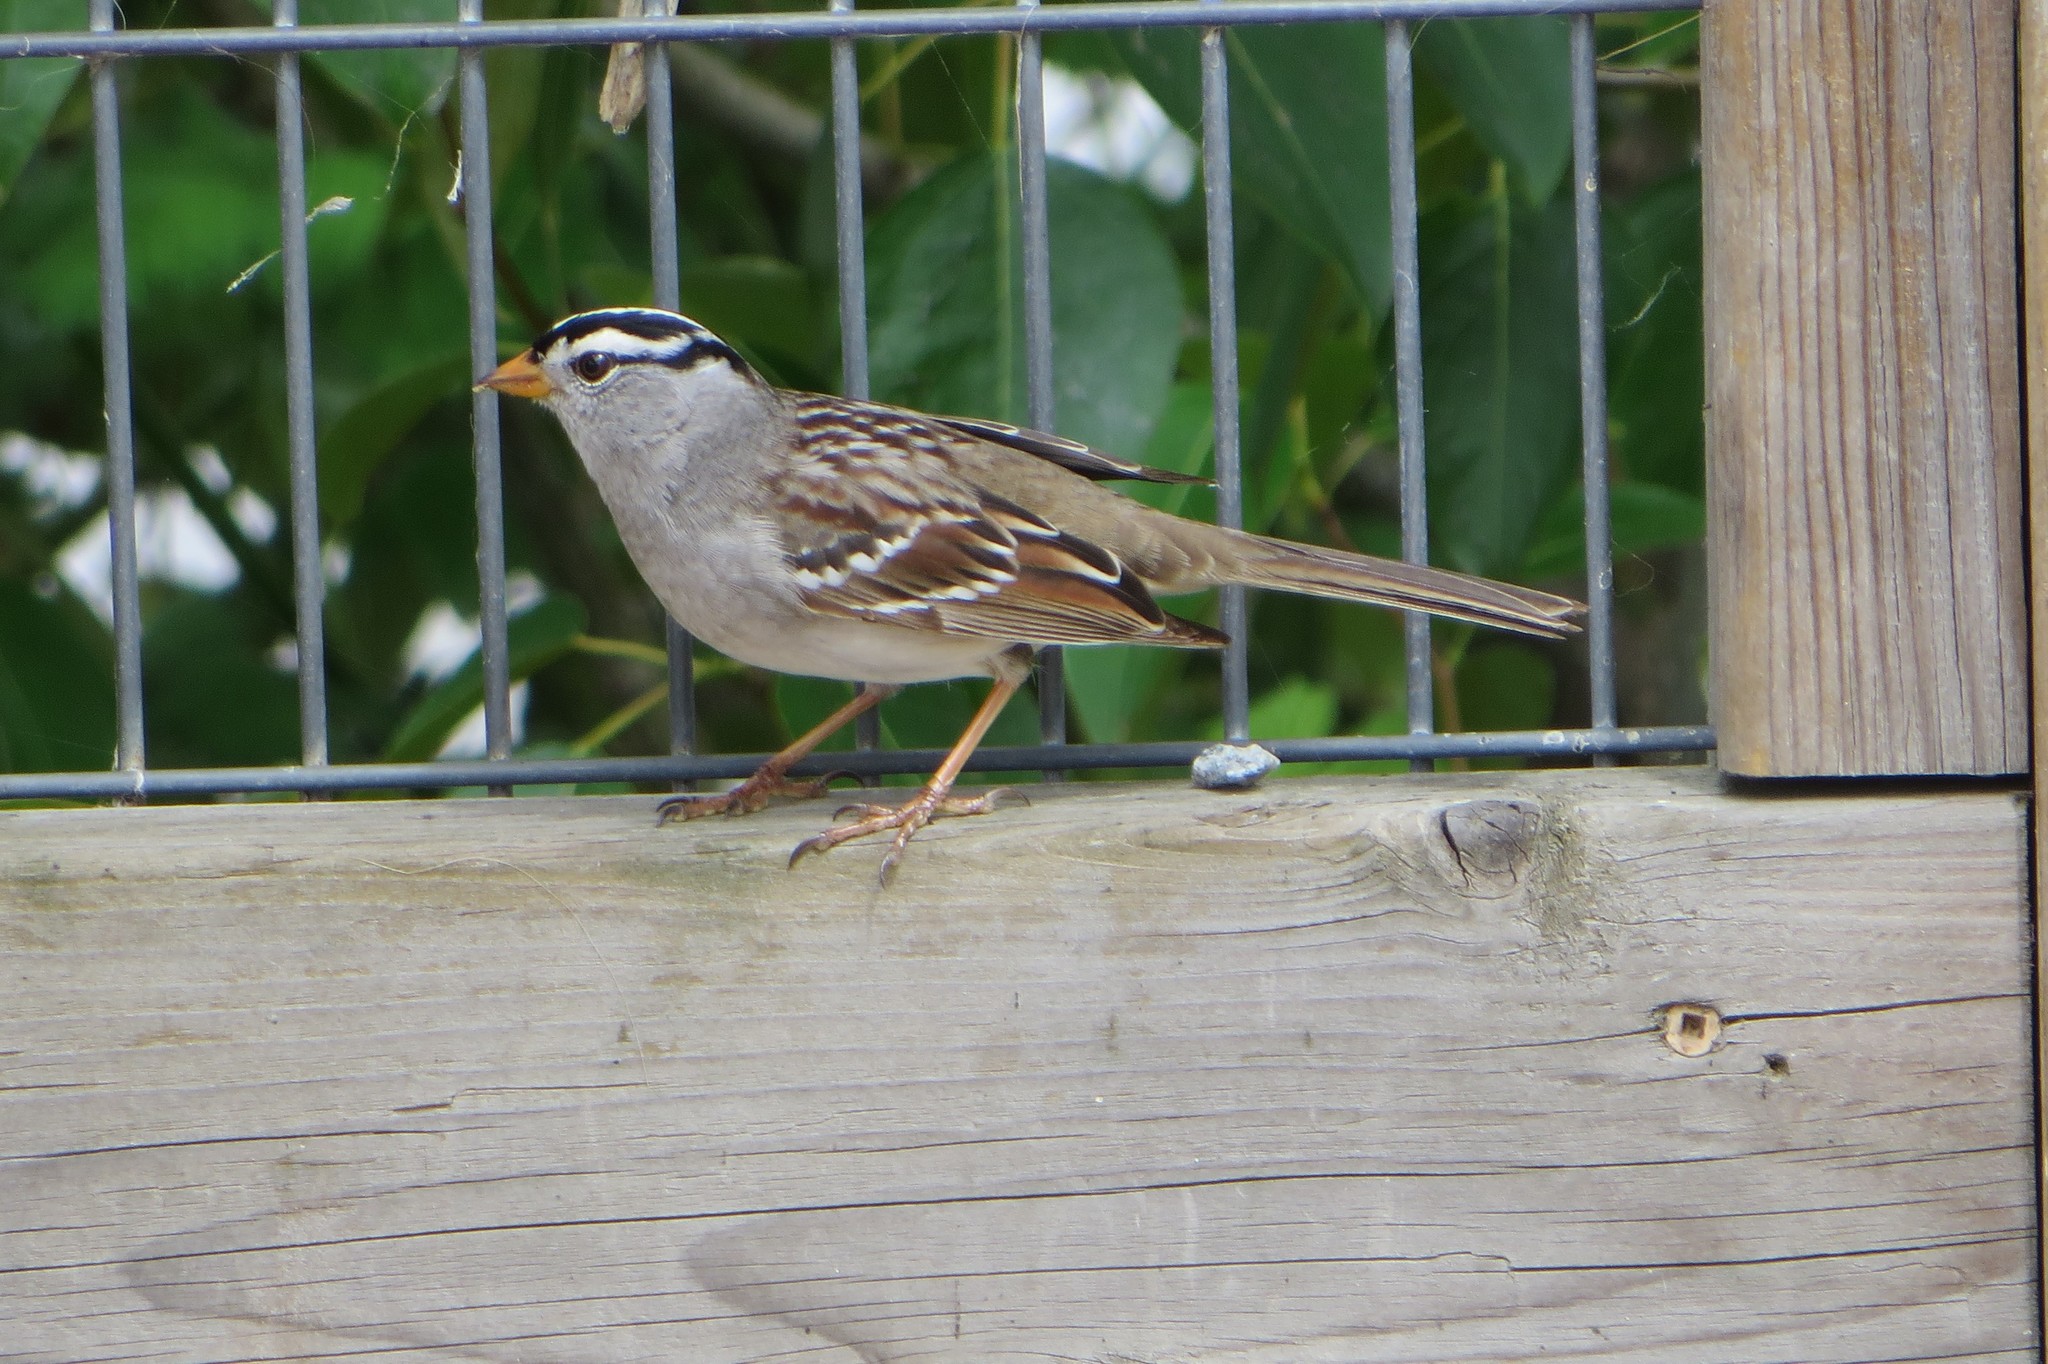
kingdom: Animalia
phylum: Chordata
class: Aves
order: Passeriformes
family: Passerellidae
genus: Zonotrichia
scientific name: Zonotrichia leucophrys
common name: White-crowned sparrow
